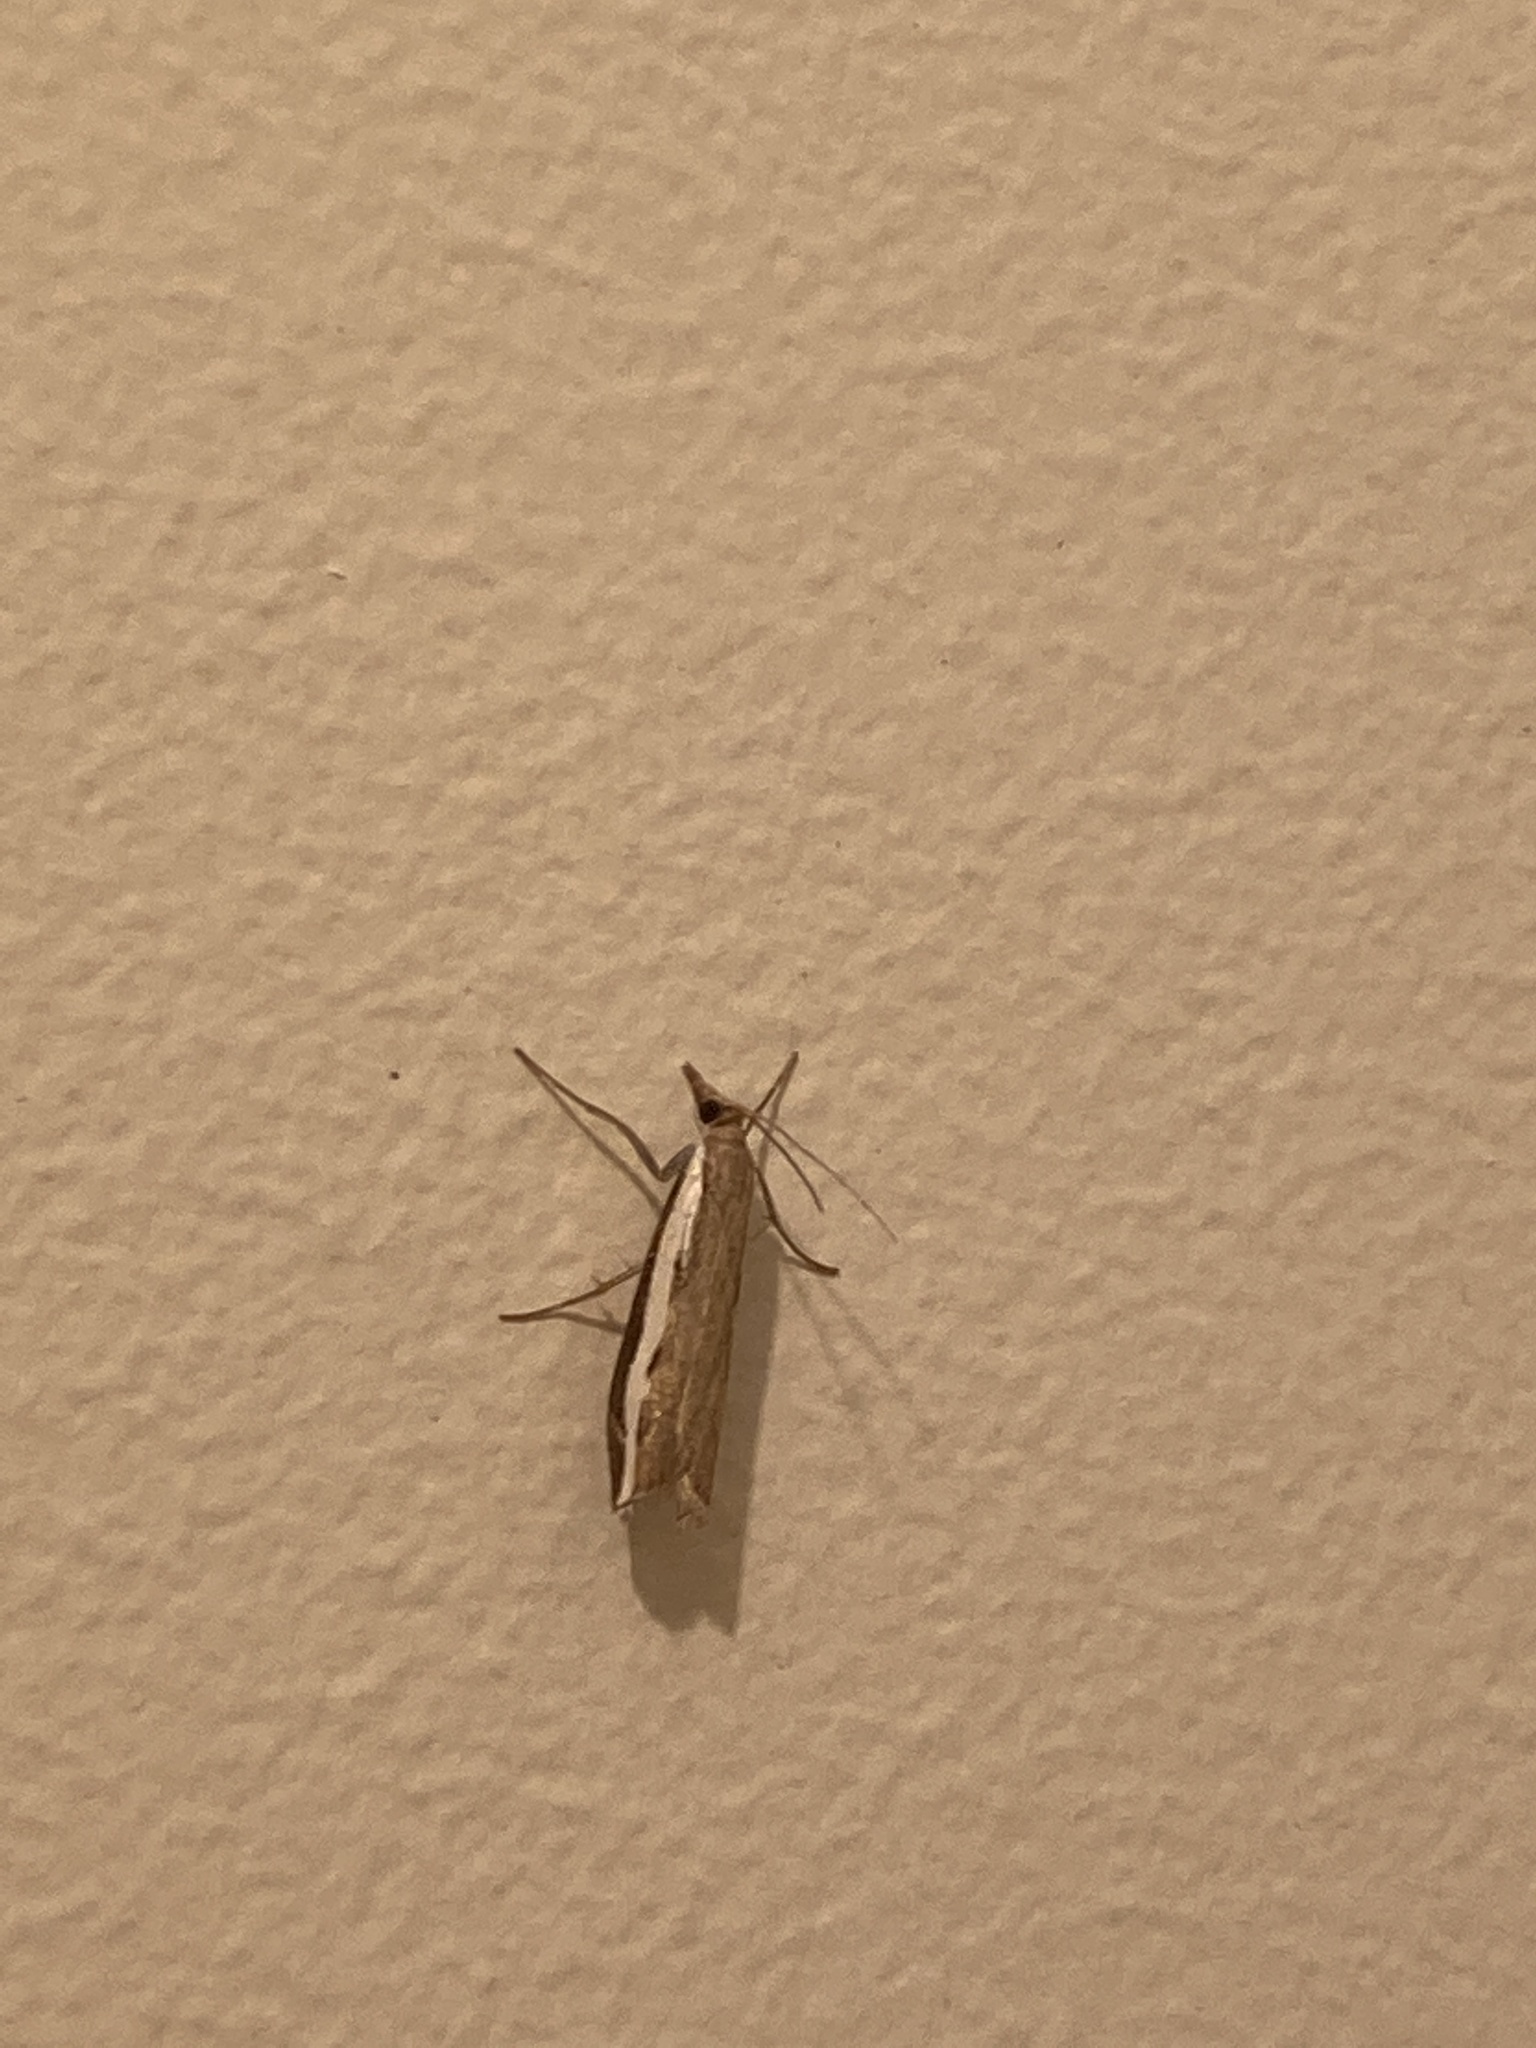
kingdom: Animalia
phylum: Arthropoda
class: Insecta
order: Lepidoptera
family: Crambidae
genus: Orocrambus
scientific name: Orocrambus flexuosellus
